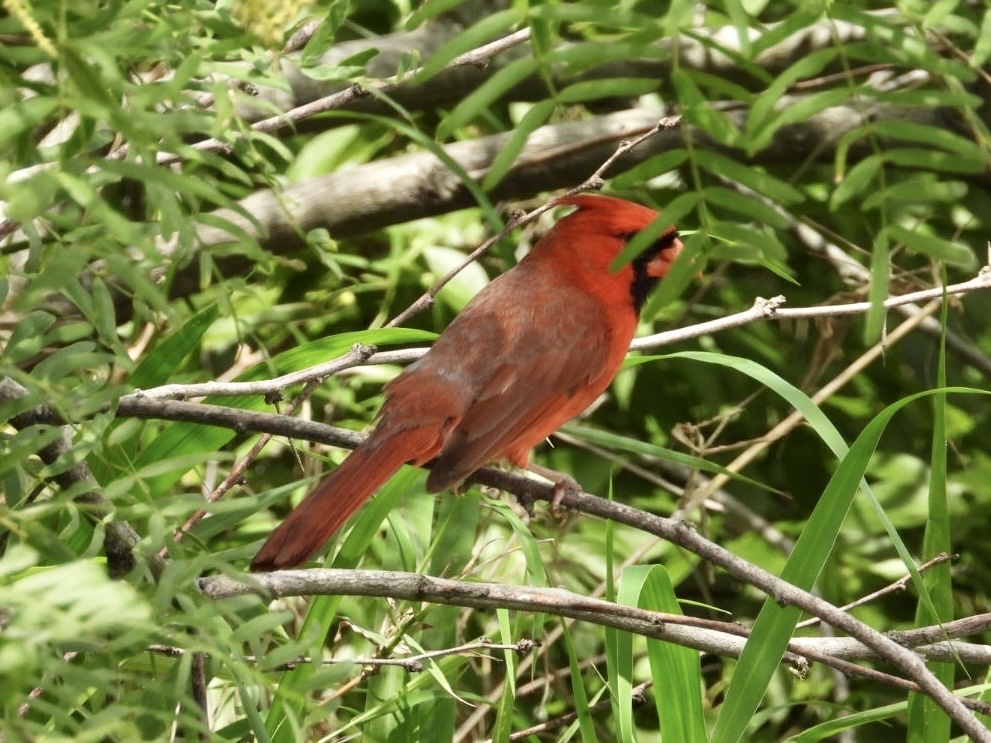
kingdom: Animalia
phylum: Chordata
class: Aves
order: Passeriformes
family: Cardinalidae
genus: Cardinalis
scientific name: Cardinalis cardinalis
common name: Northern cardinal
